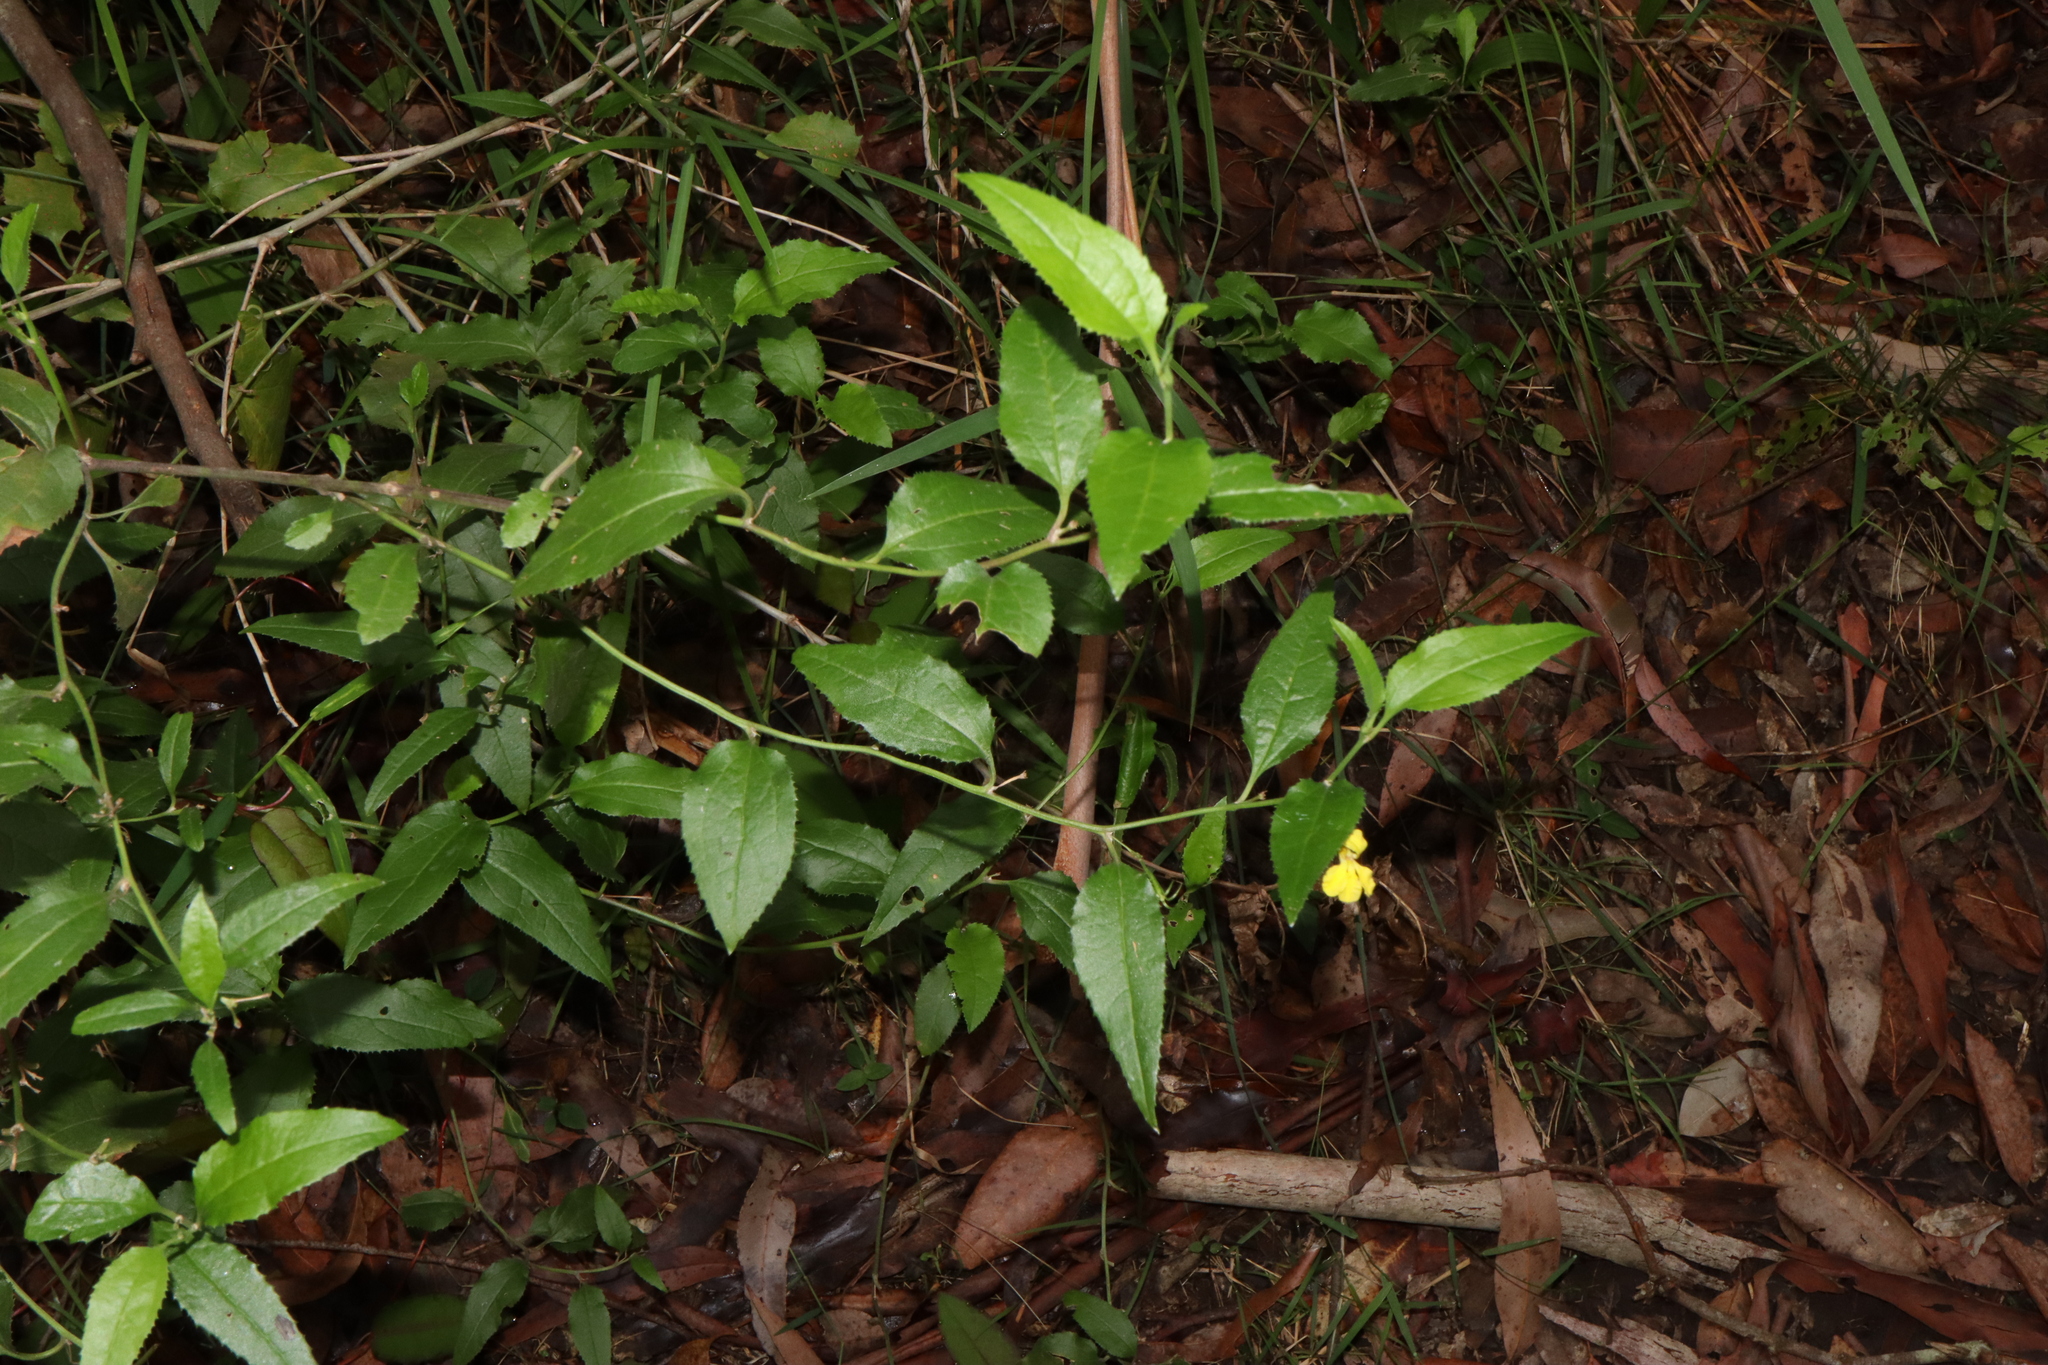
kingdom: Plantae
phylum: Tracheophyta
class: Magnoliopsida
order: Asterales
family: Goodeniaceae
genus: Goodenia
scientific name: Goodenia ovata
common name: Hop goodenia
